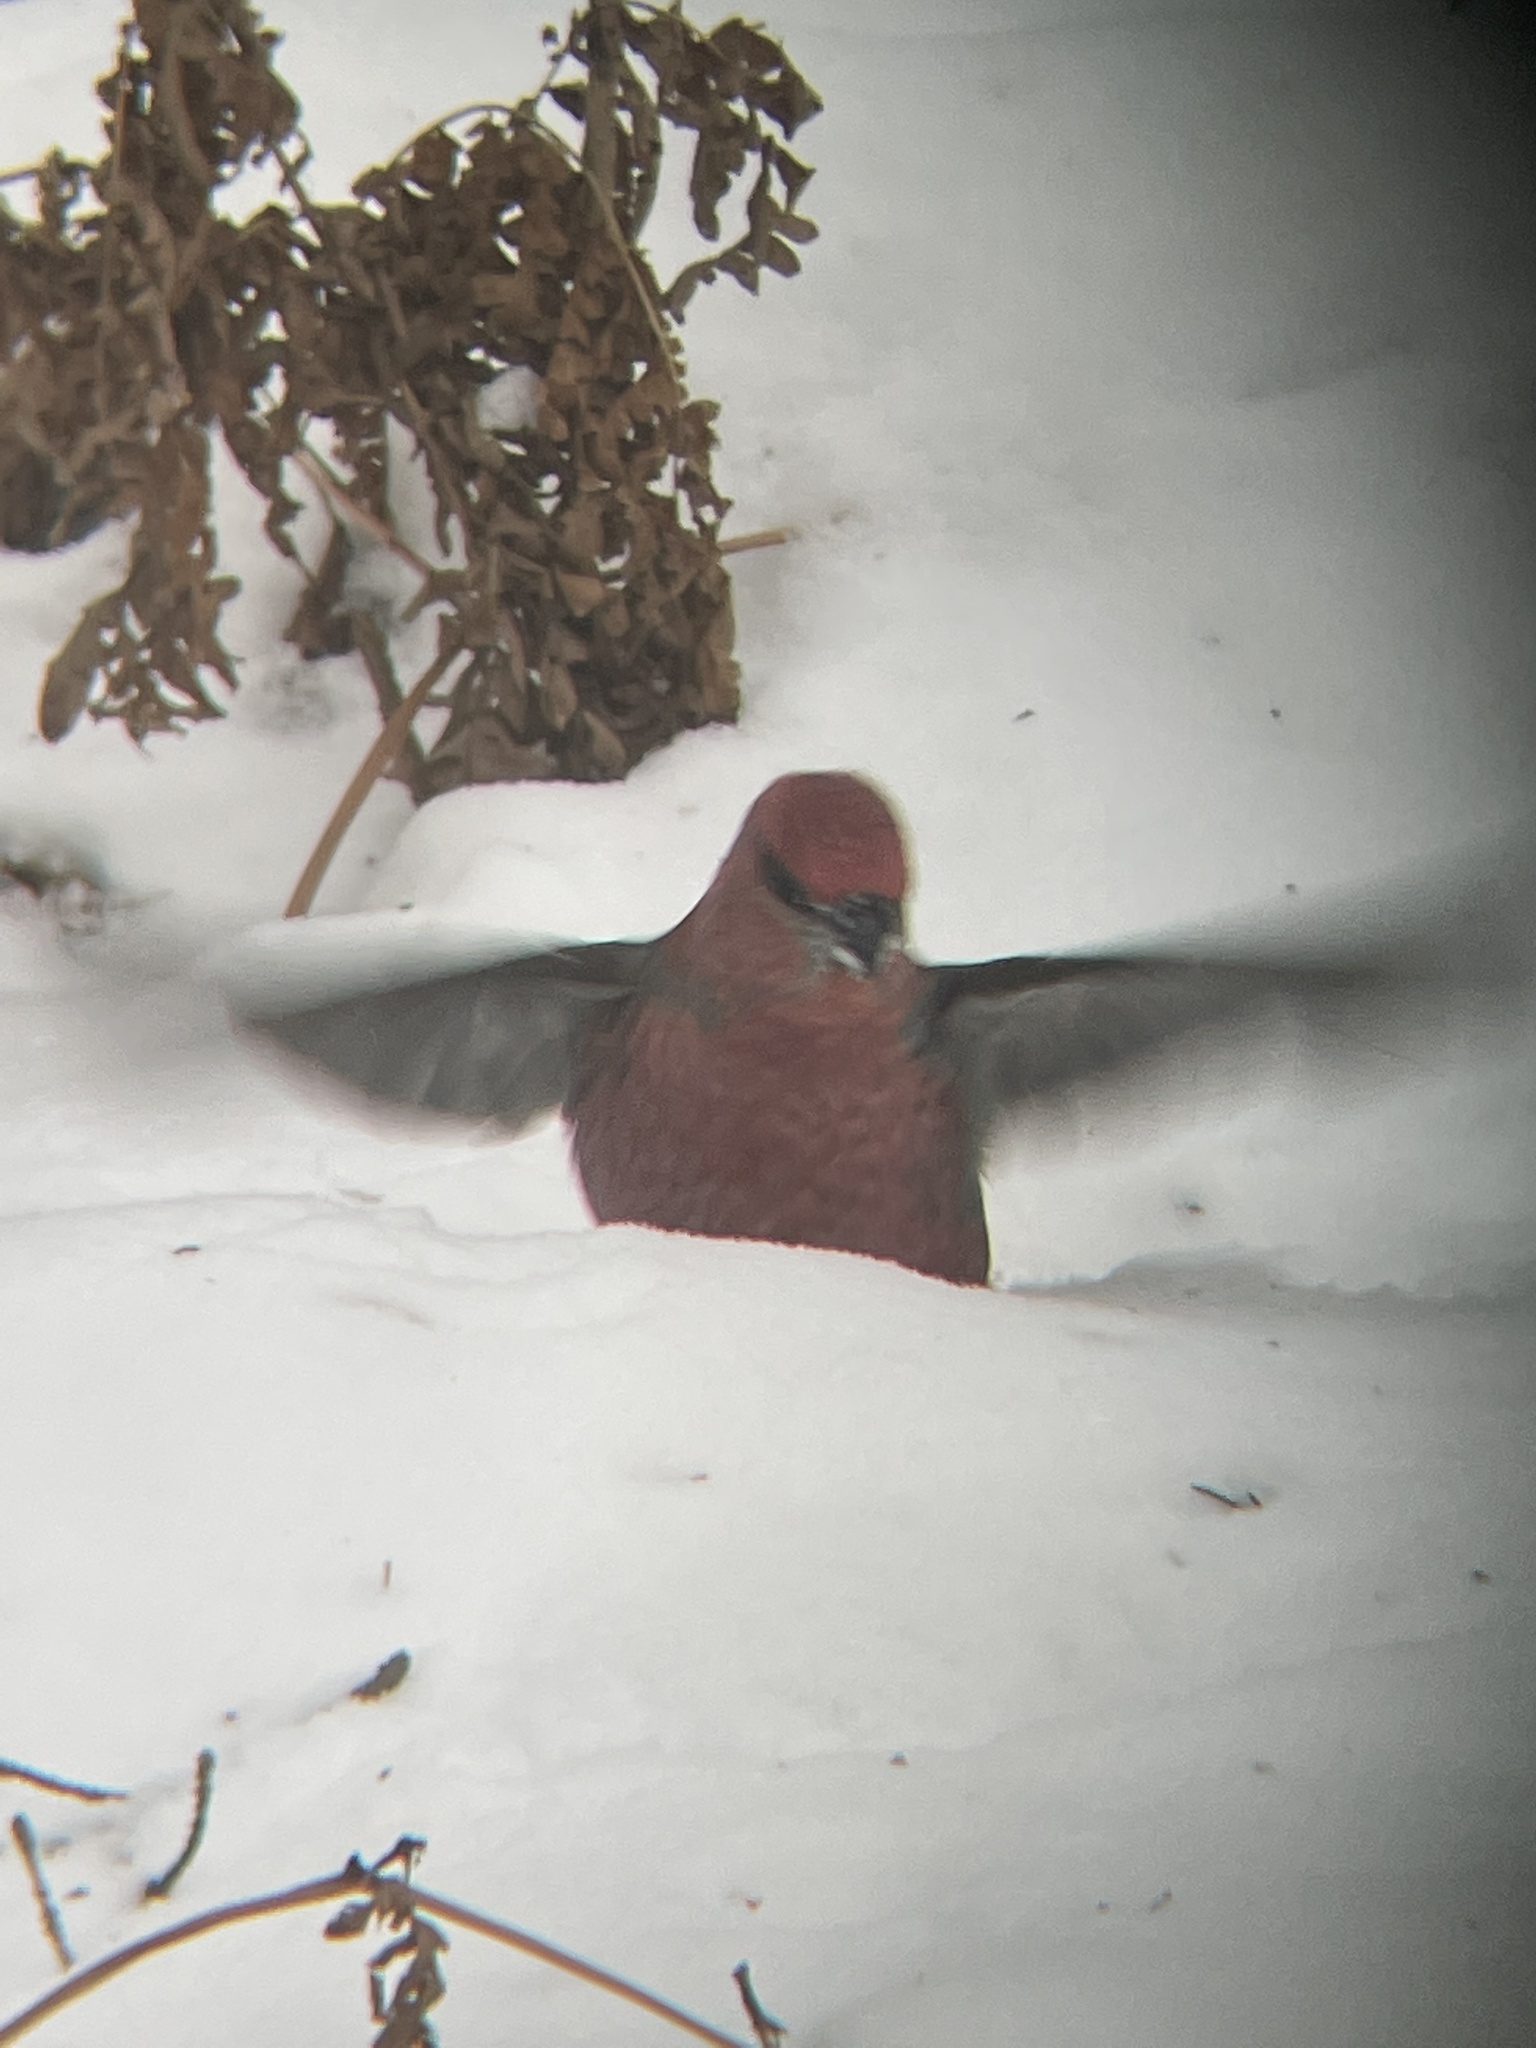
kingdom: Animalia
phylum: Chordata
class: Aves
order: Passeriformes
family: Fringillidae
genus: Pinicola
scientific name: Pinicola enucleator
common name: Pine grosbeak
